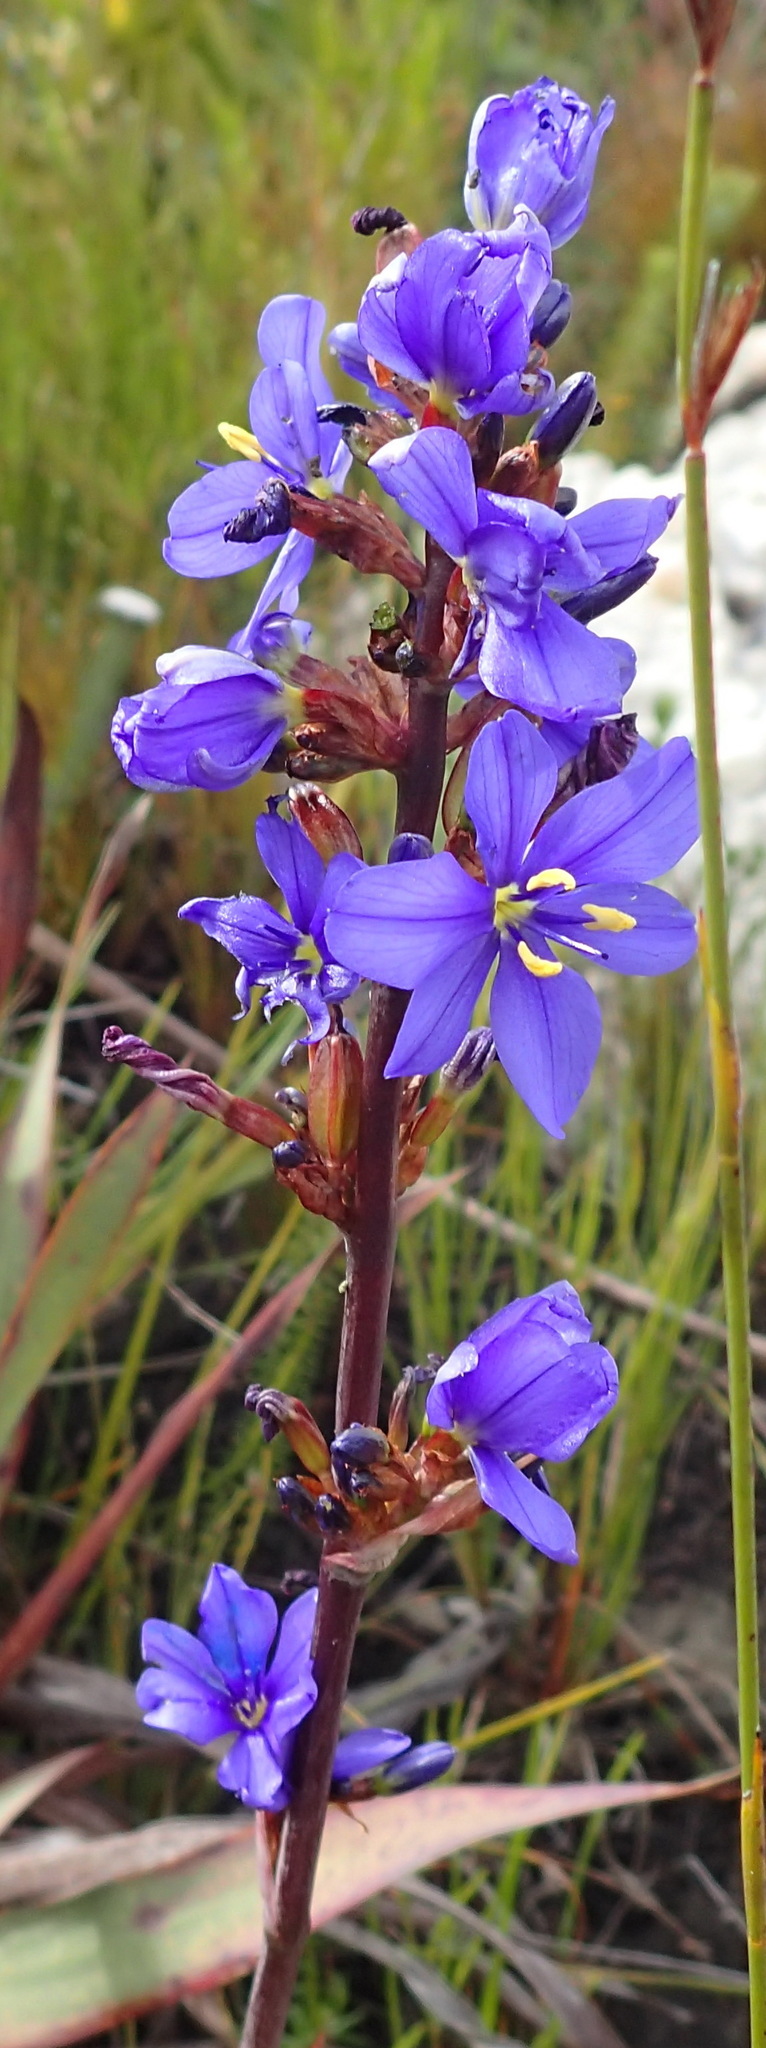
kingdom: Plantae
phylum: Tracheophyta
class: Liliopsida
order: Asparagales
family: Iridaceae
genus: Aristea
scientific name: Aristea bakeri
